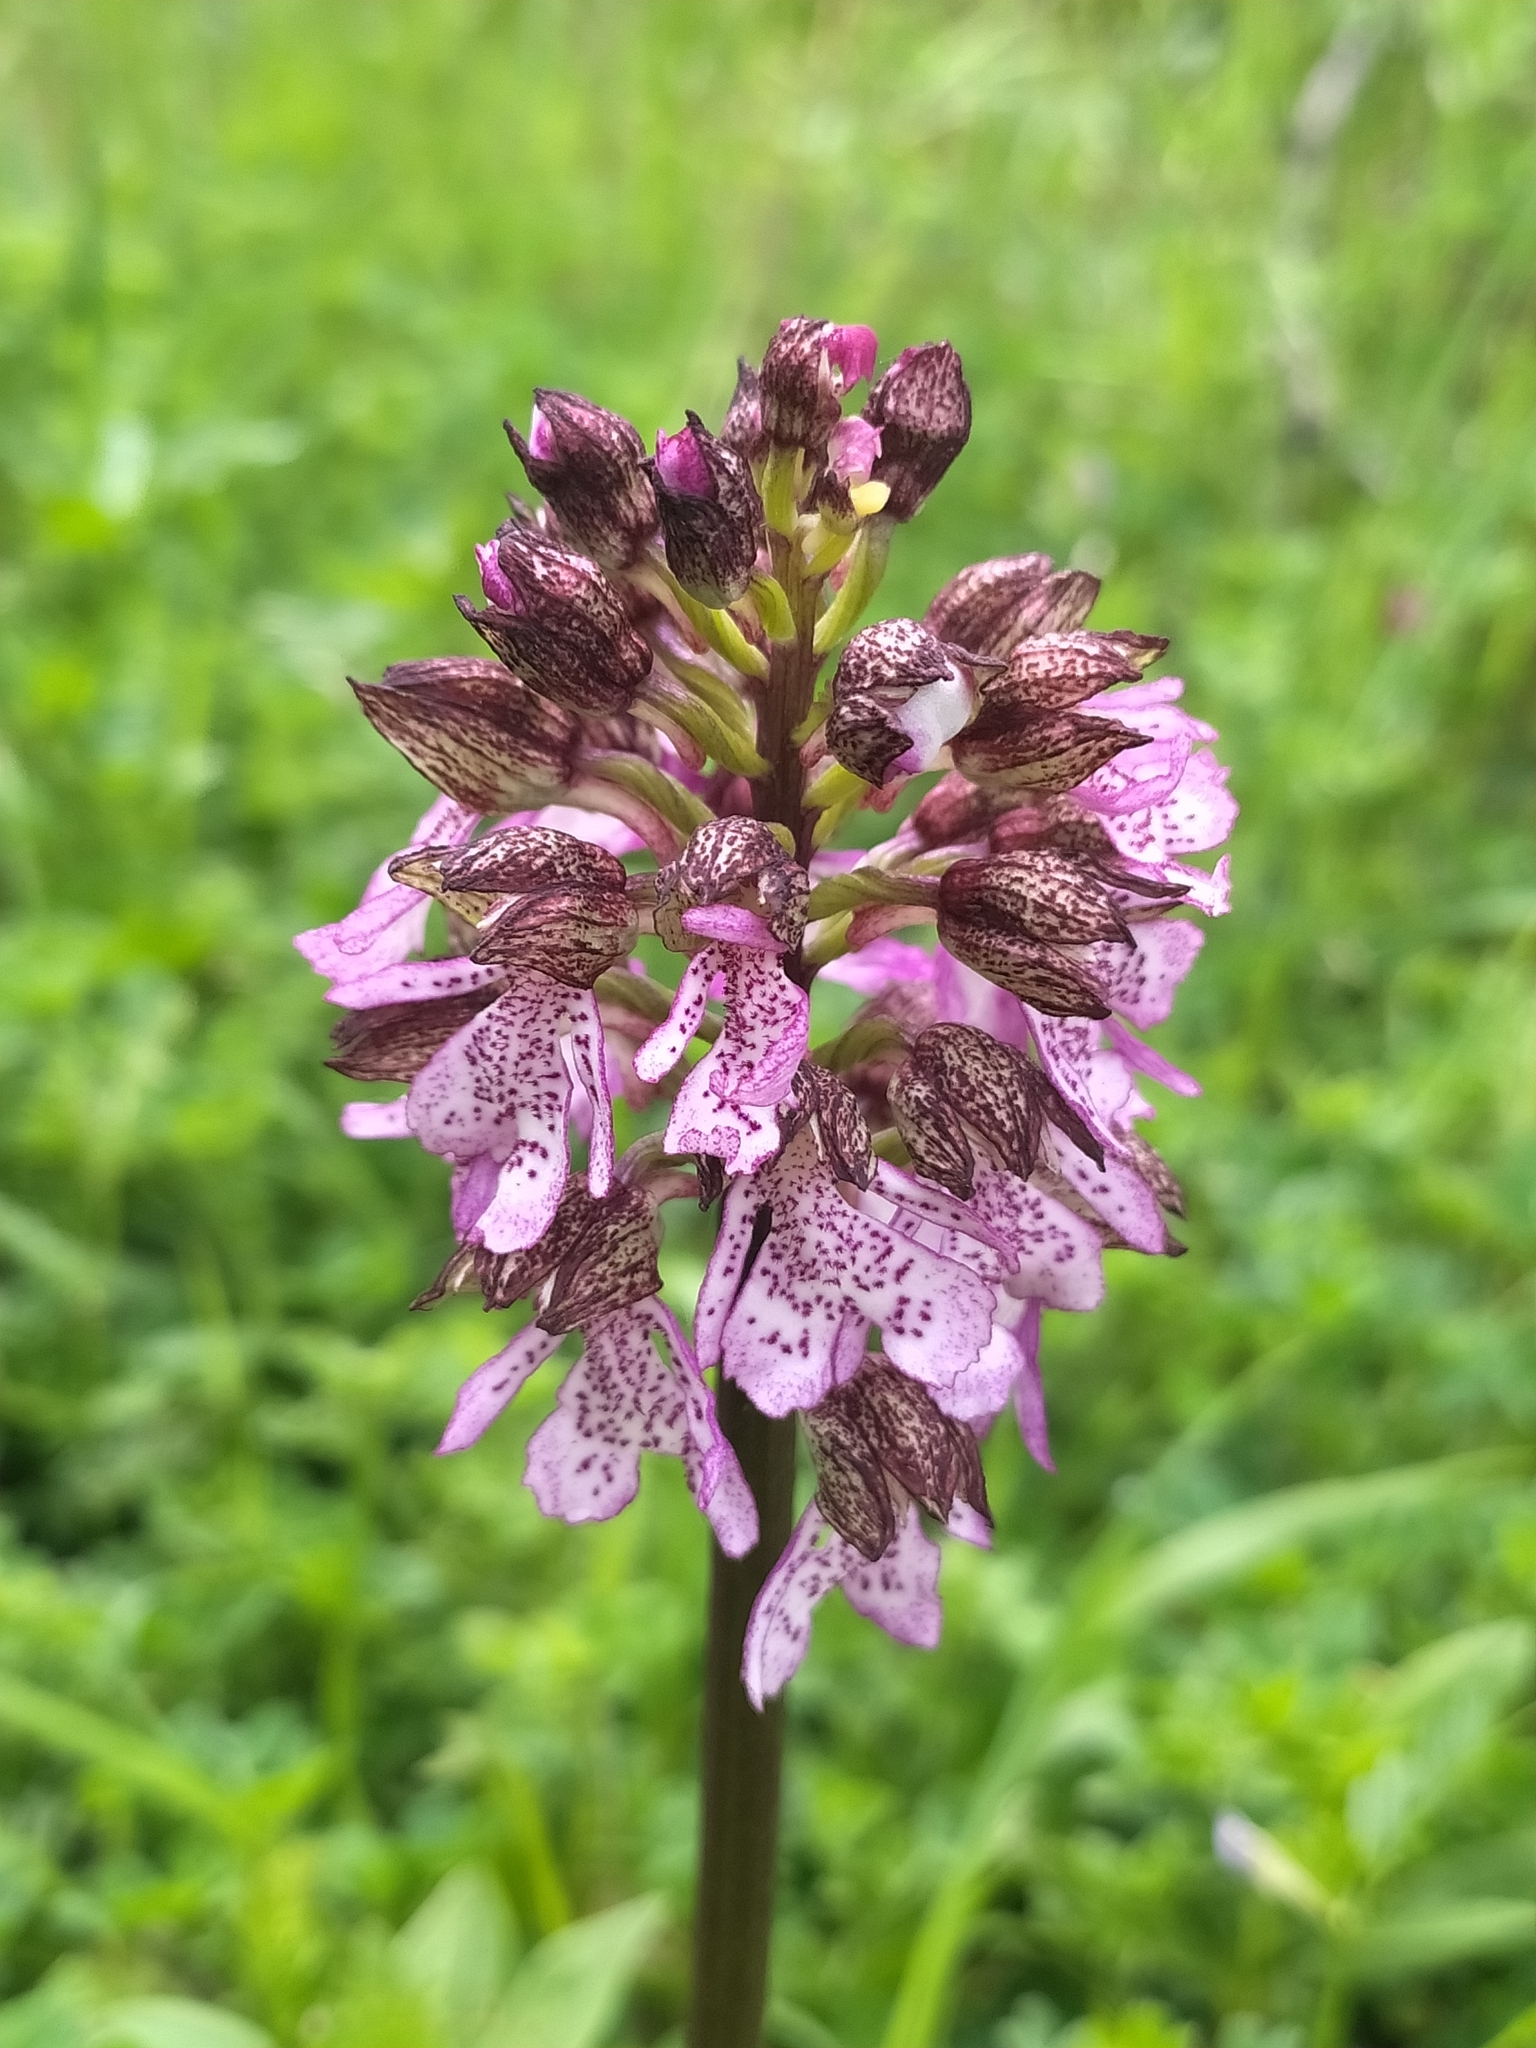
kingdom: Plantae
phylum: Tracheophyta
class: Liliopsida
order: Asparagales
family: Orchidaceae
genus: Orchis
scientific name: Orchis purpurea
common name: Lady orchid
